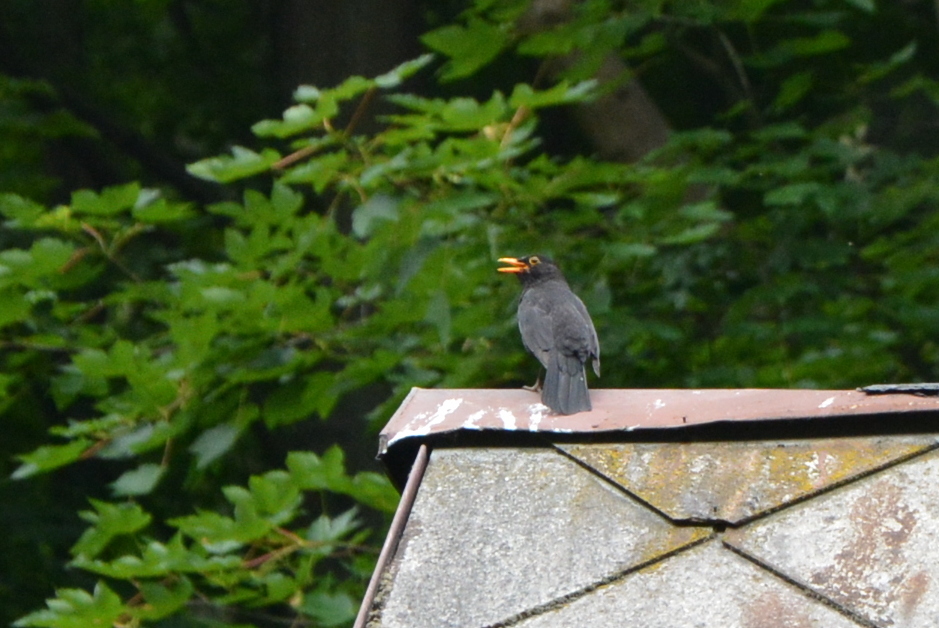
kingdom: Animalia
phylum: Chordata
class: Aves
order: Passeriformes
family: Turdidae
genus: Turdus
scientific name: Turdus merula
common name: Common blackbird
